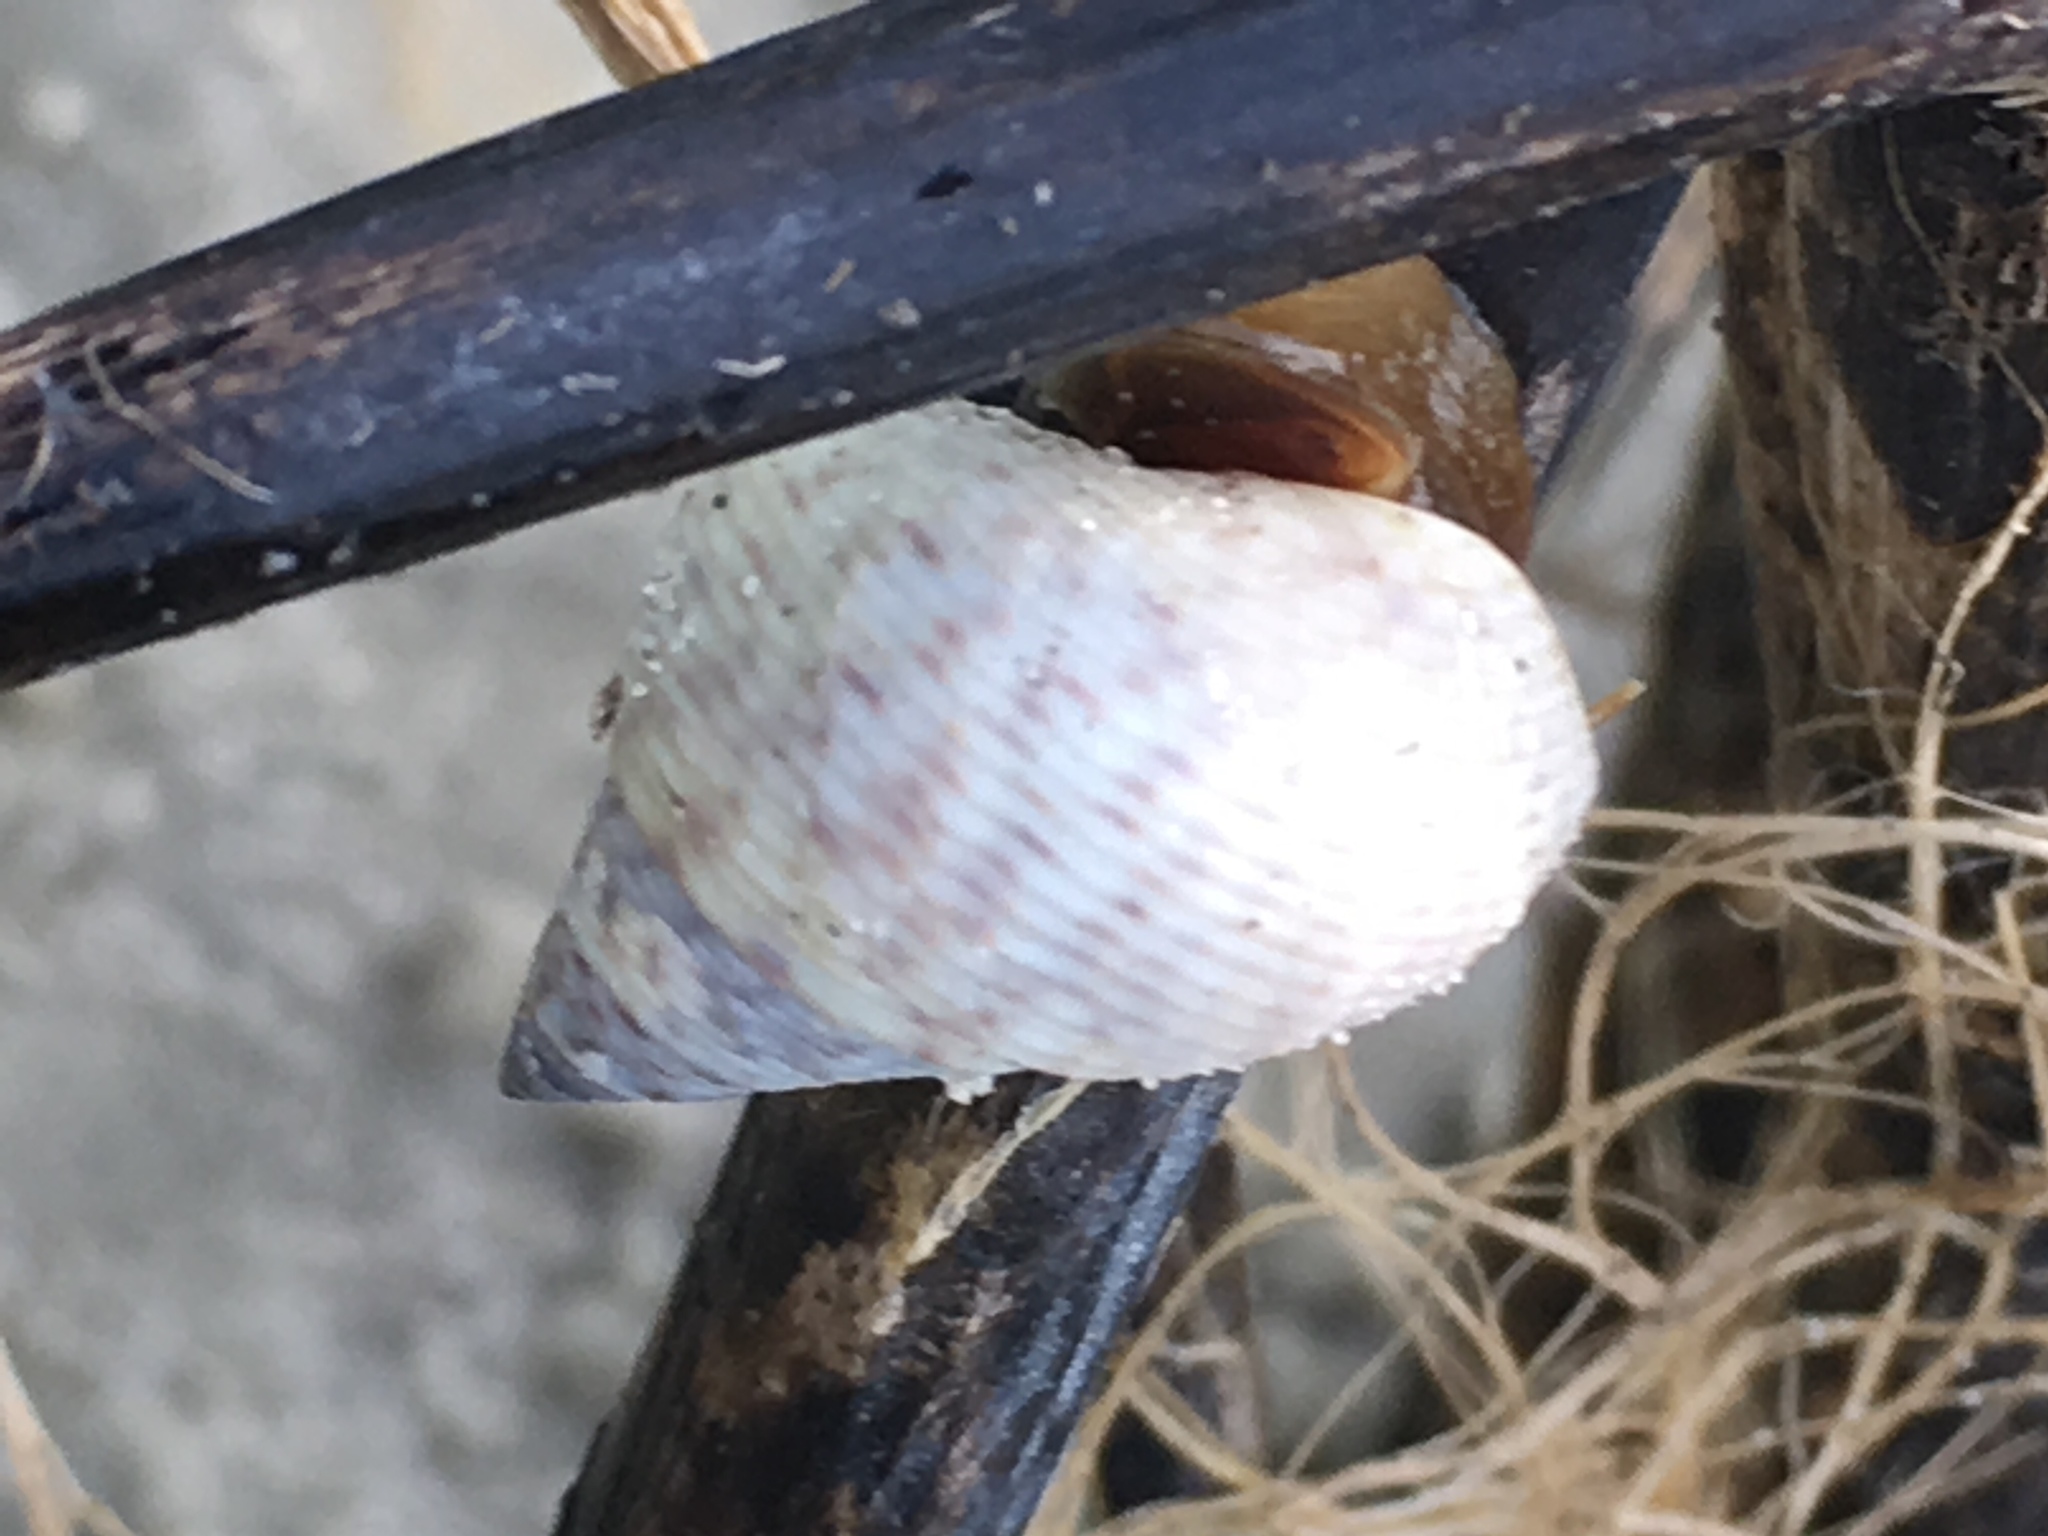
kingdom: Animalia
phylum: Mollusca
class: Gastropoda
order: Littorinimorpha
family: Littorinidae
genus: Littoraria
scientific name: Littoraria irrorata
